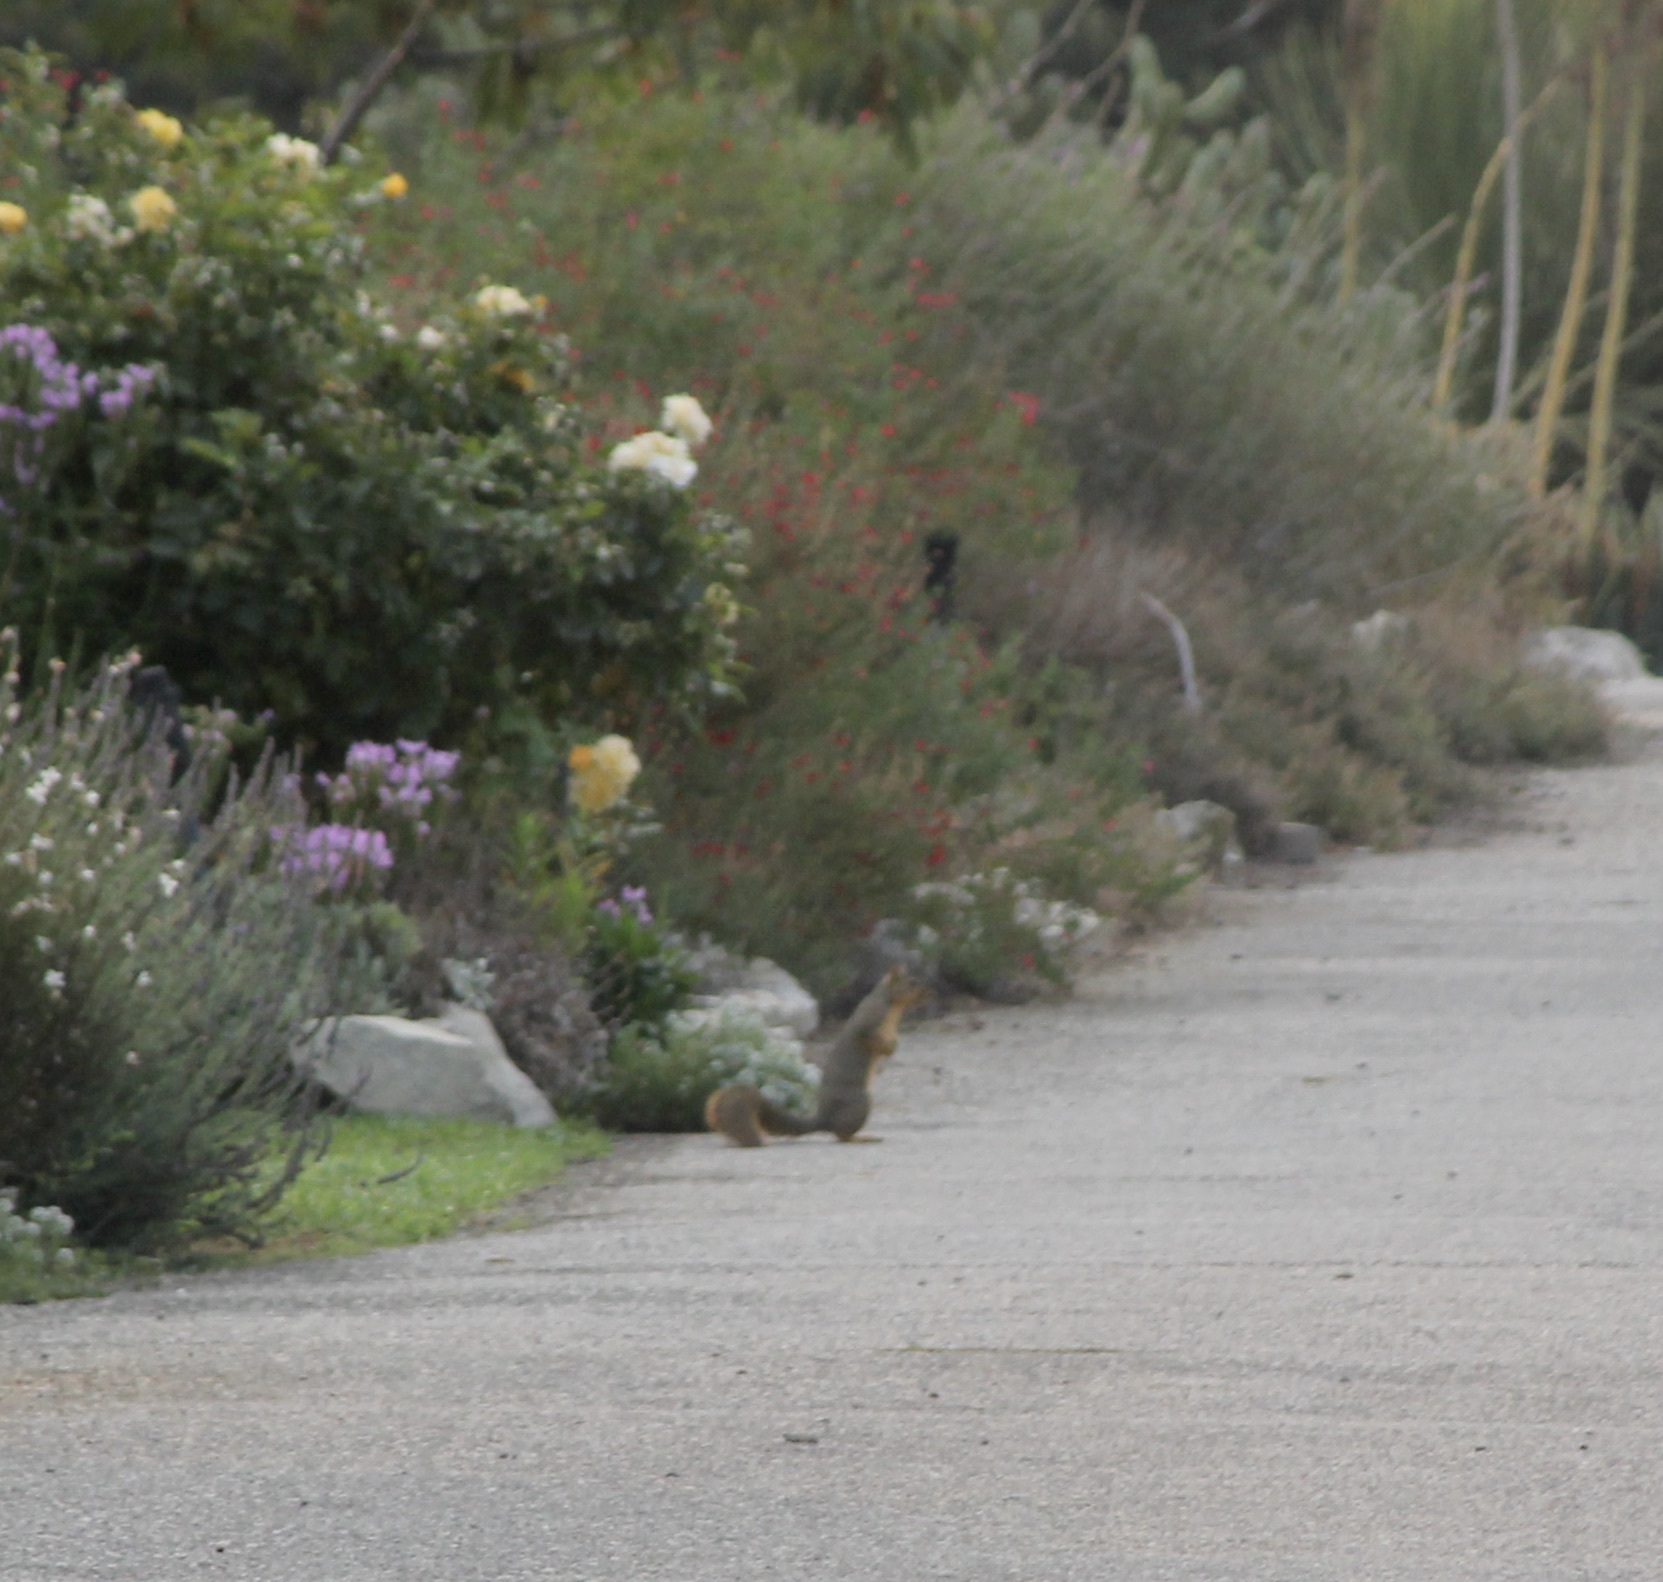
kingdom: Animalia
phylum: Chordata
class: Mammalia
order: Rodentia
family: Sciuridae
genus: Sciurus
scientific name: Sciurus niger
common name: Fox squirrel
